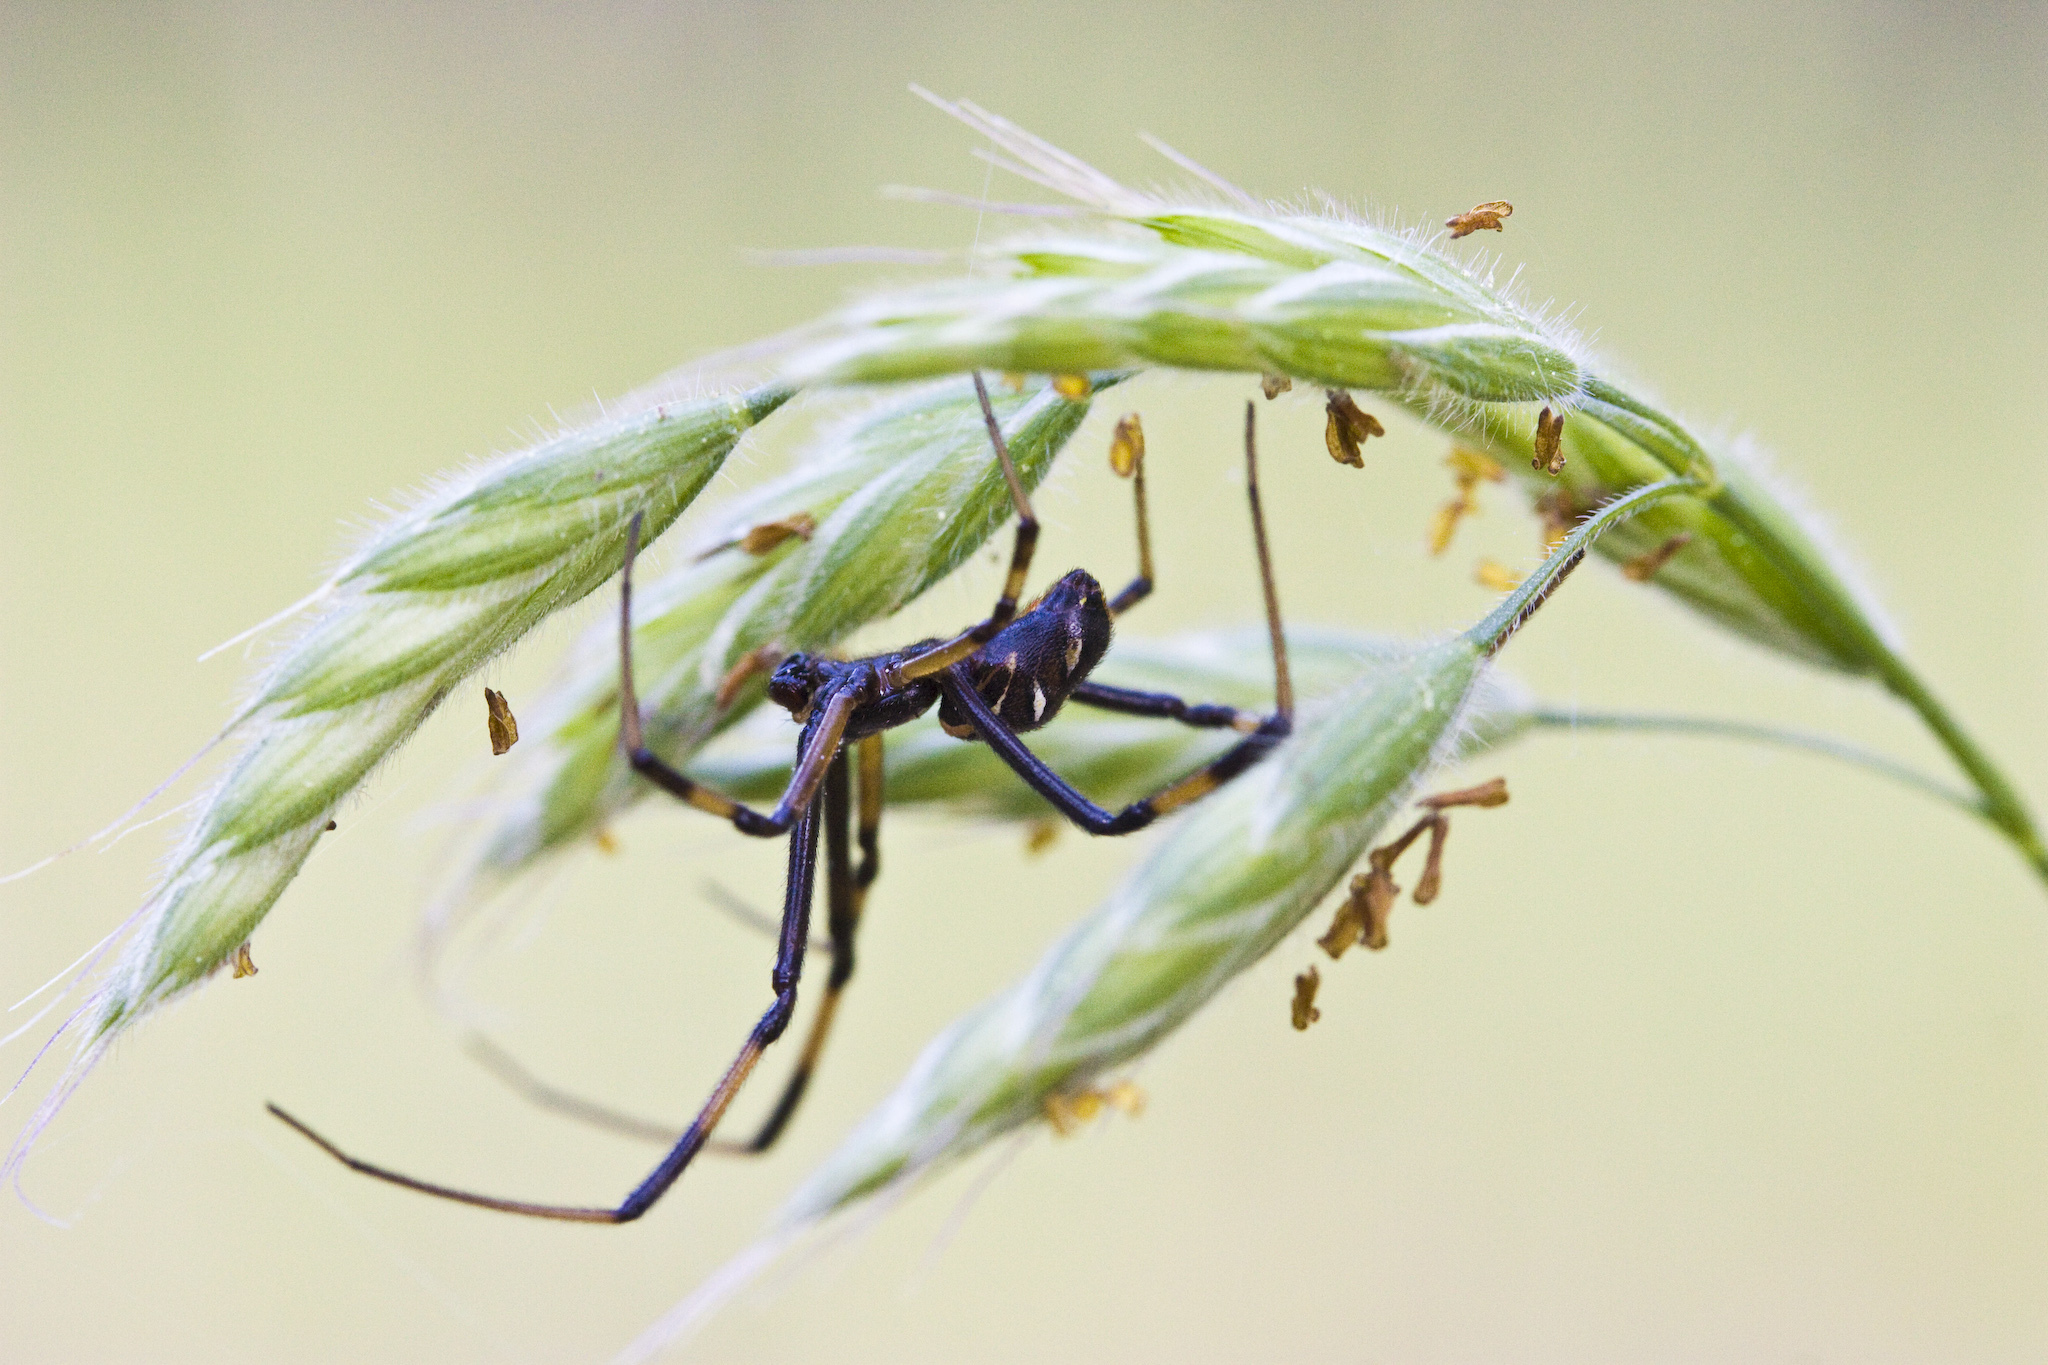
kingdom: Animalia
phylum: Arthropoda
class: Arachnida
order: Araneae
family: Theridiidae
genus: Latrodectus
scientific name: Latrodectus hesperus
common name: Western black widow
